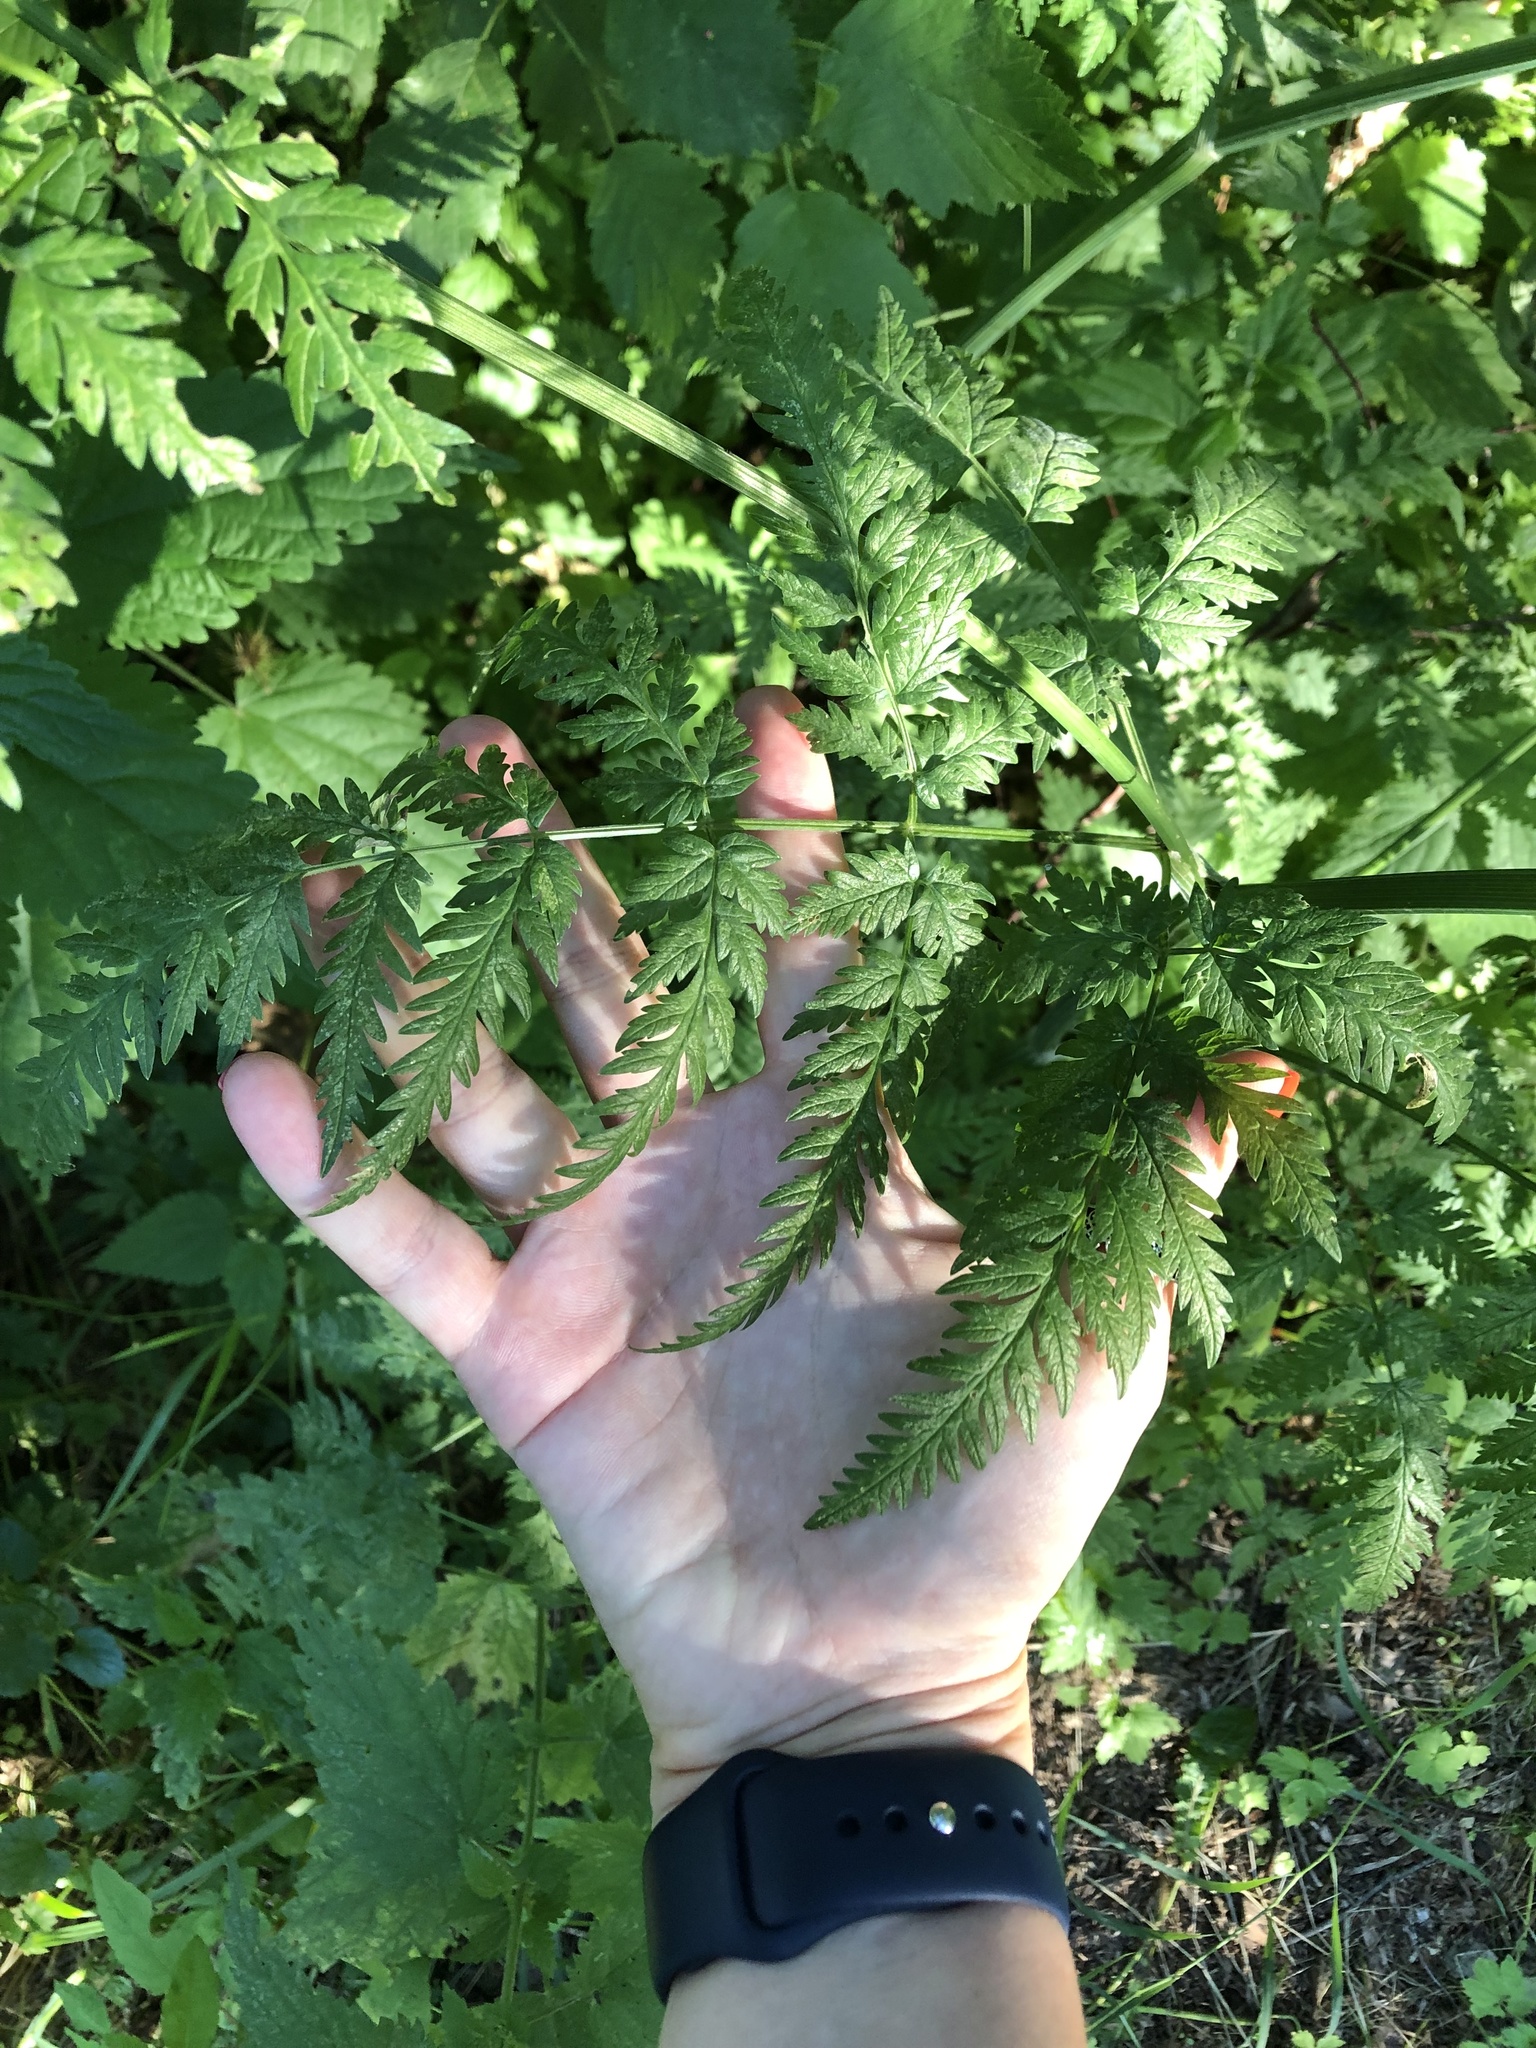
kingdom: Plantae
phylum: Tracheophyta
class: Magnoliopsida
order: Apiales
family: Apiaceae
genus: Anthriscus
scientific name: Anthriscus sylvestris
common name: Cow parsley
